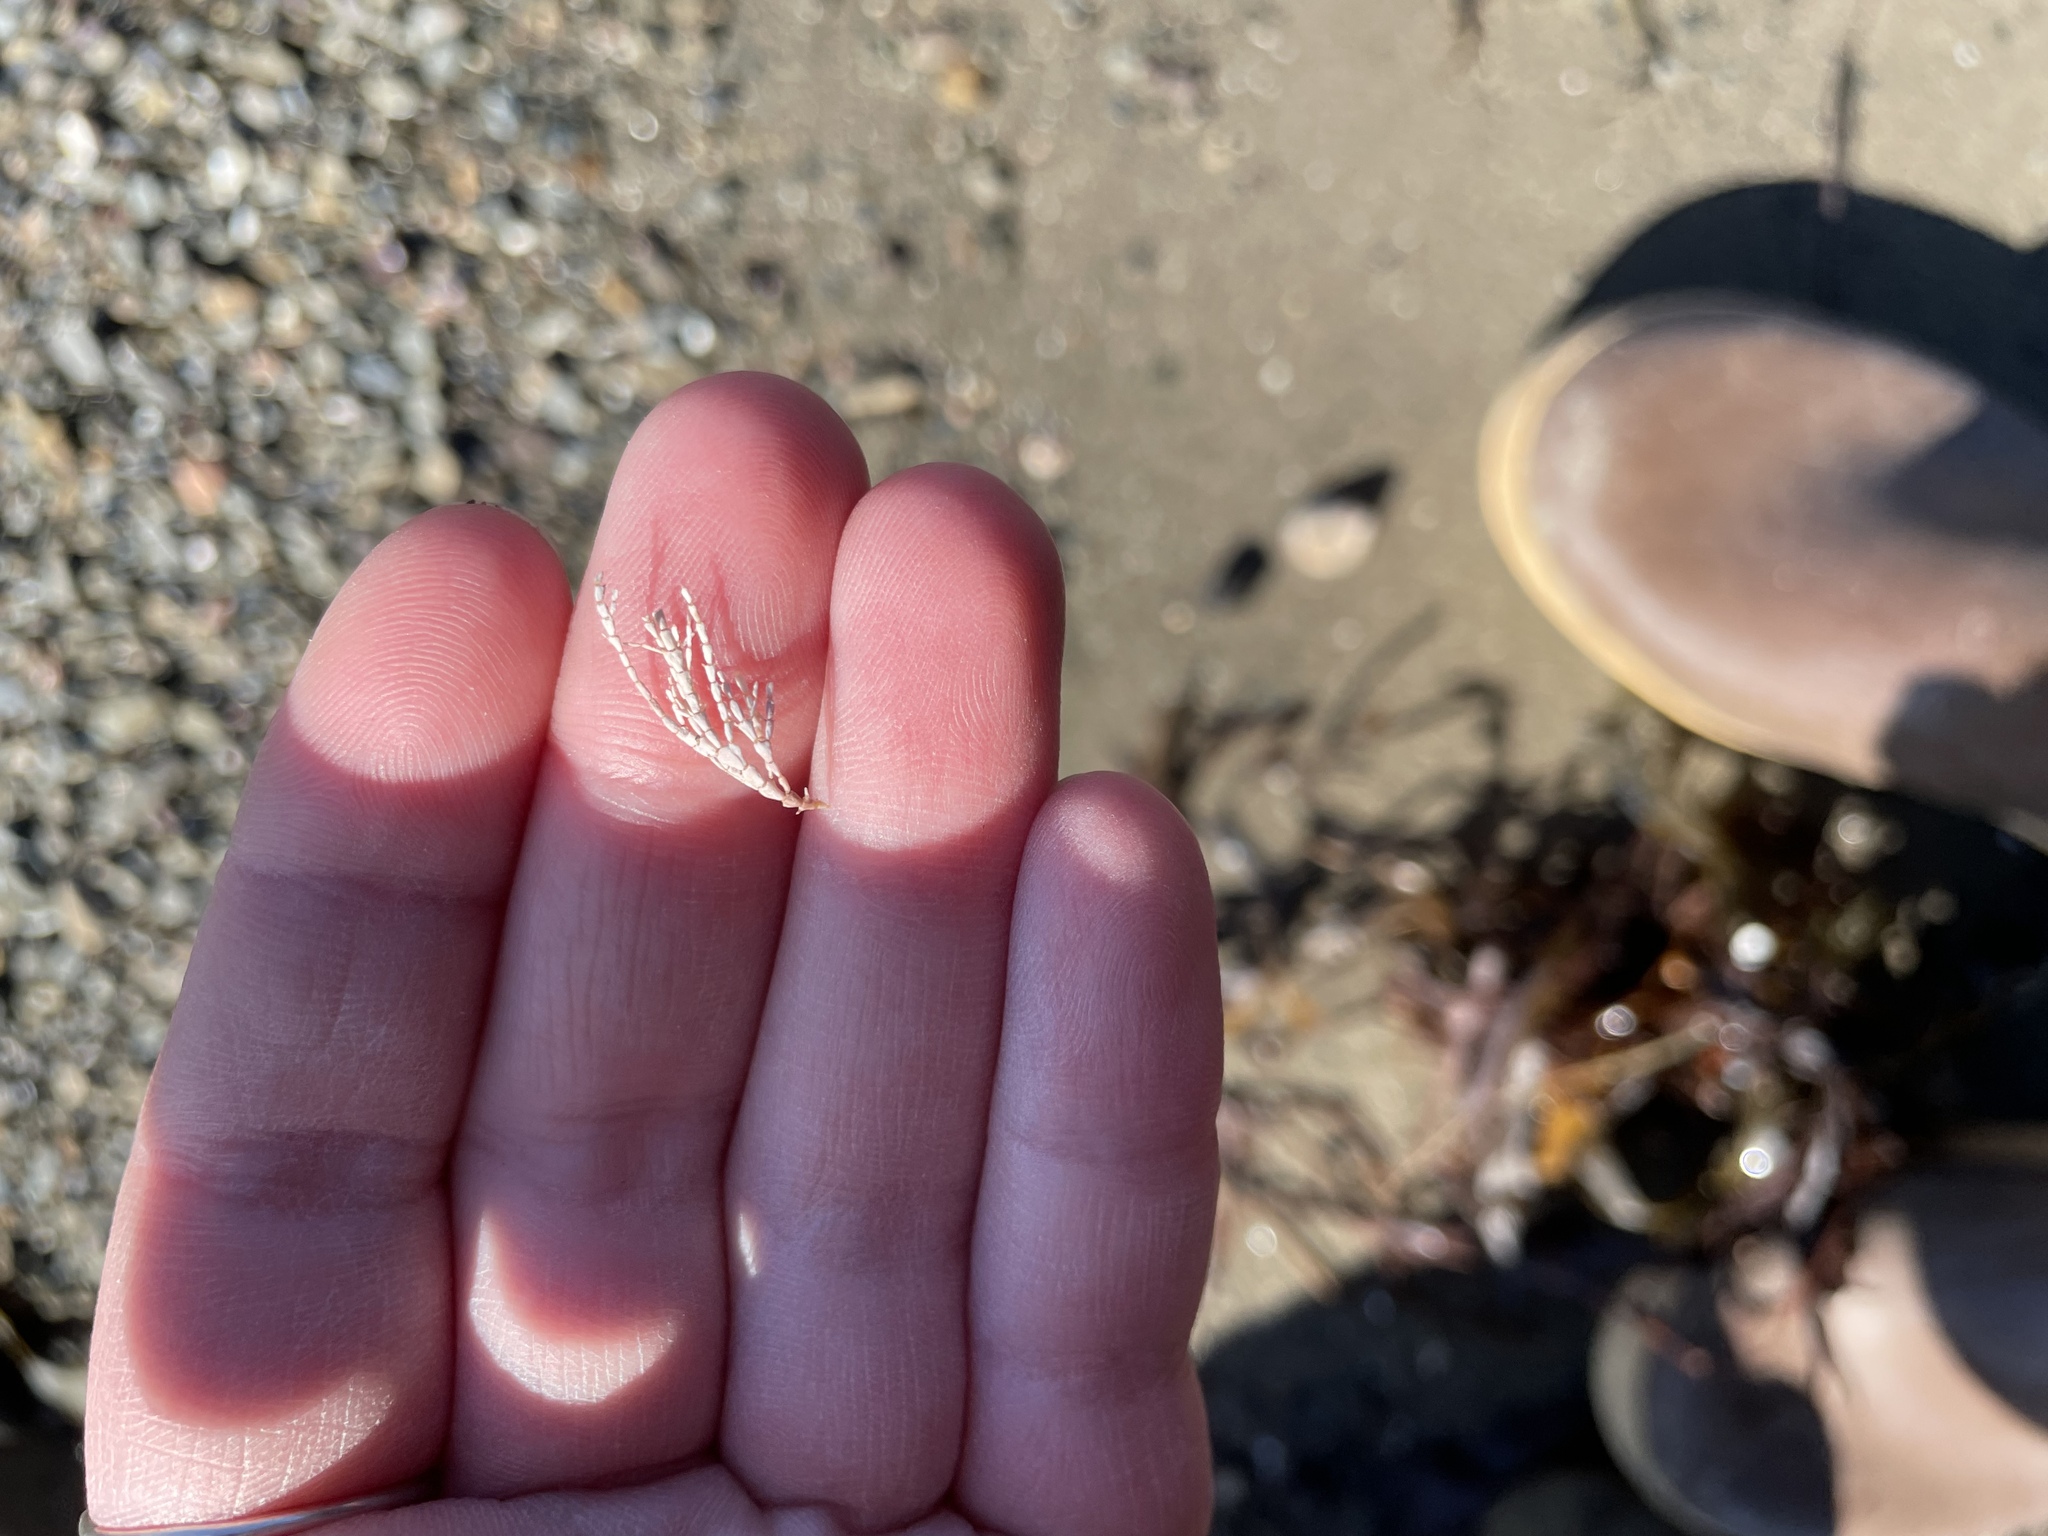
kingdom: Plantae
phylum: Rhodophyta
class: Florideophyceae
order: Corallinales
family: Corallinaceae
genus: Corallina
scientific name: Corallina officinalis
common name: Coral weed
